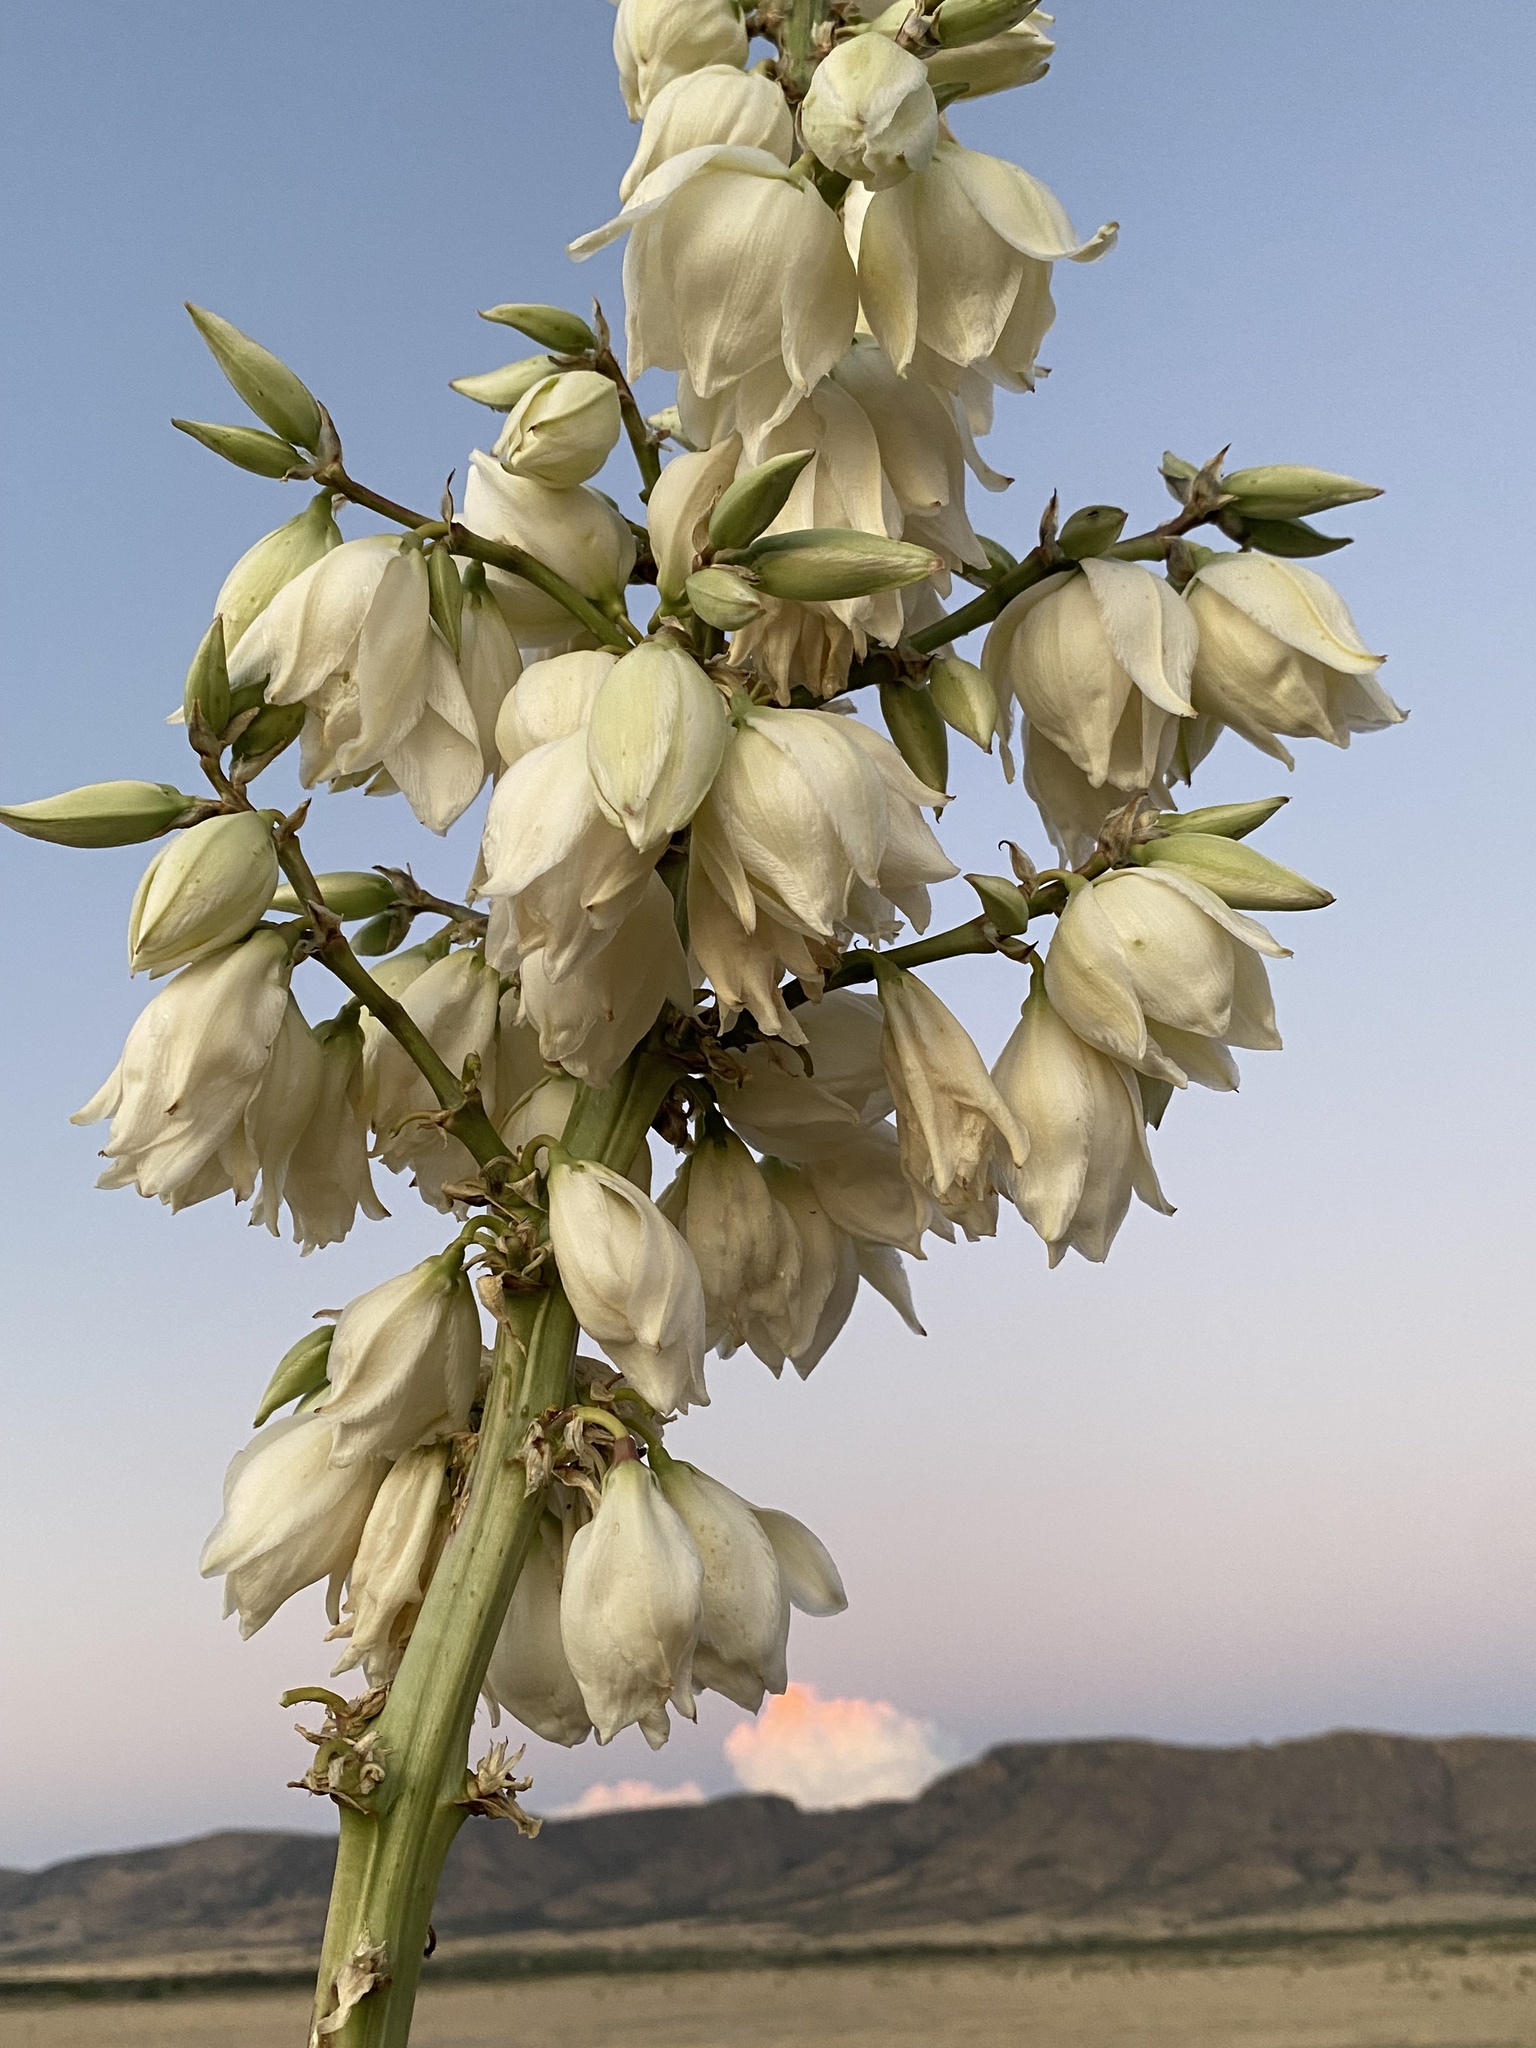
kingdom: Plantae
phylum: Tracheophyta
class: Liliopsida
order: Asparagales
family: Asparagaceae
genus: Yucca
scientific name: Yucca elata
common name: Palmella
